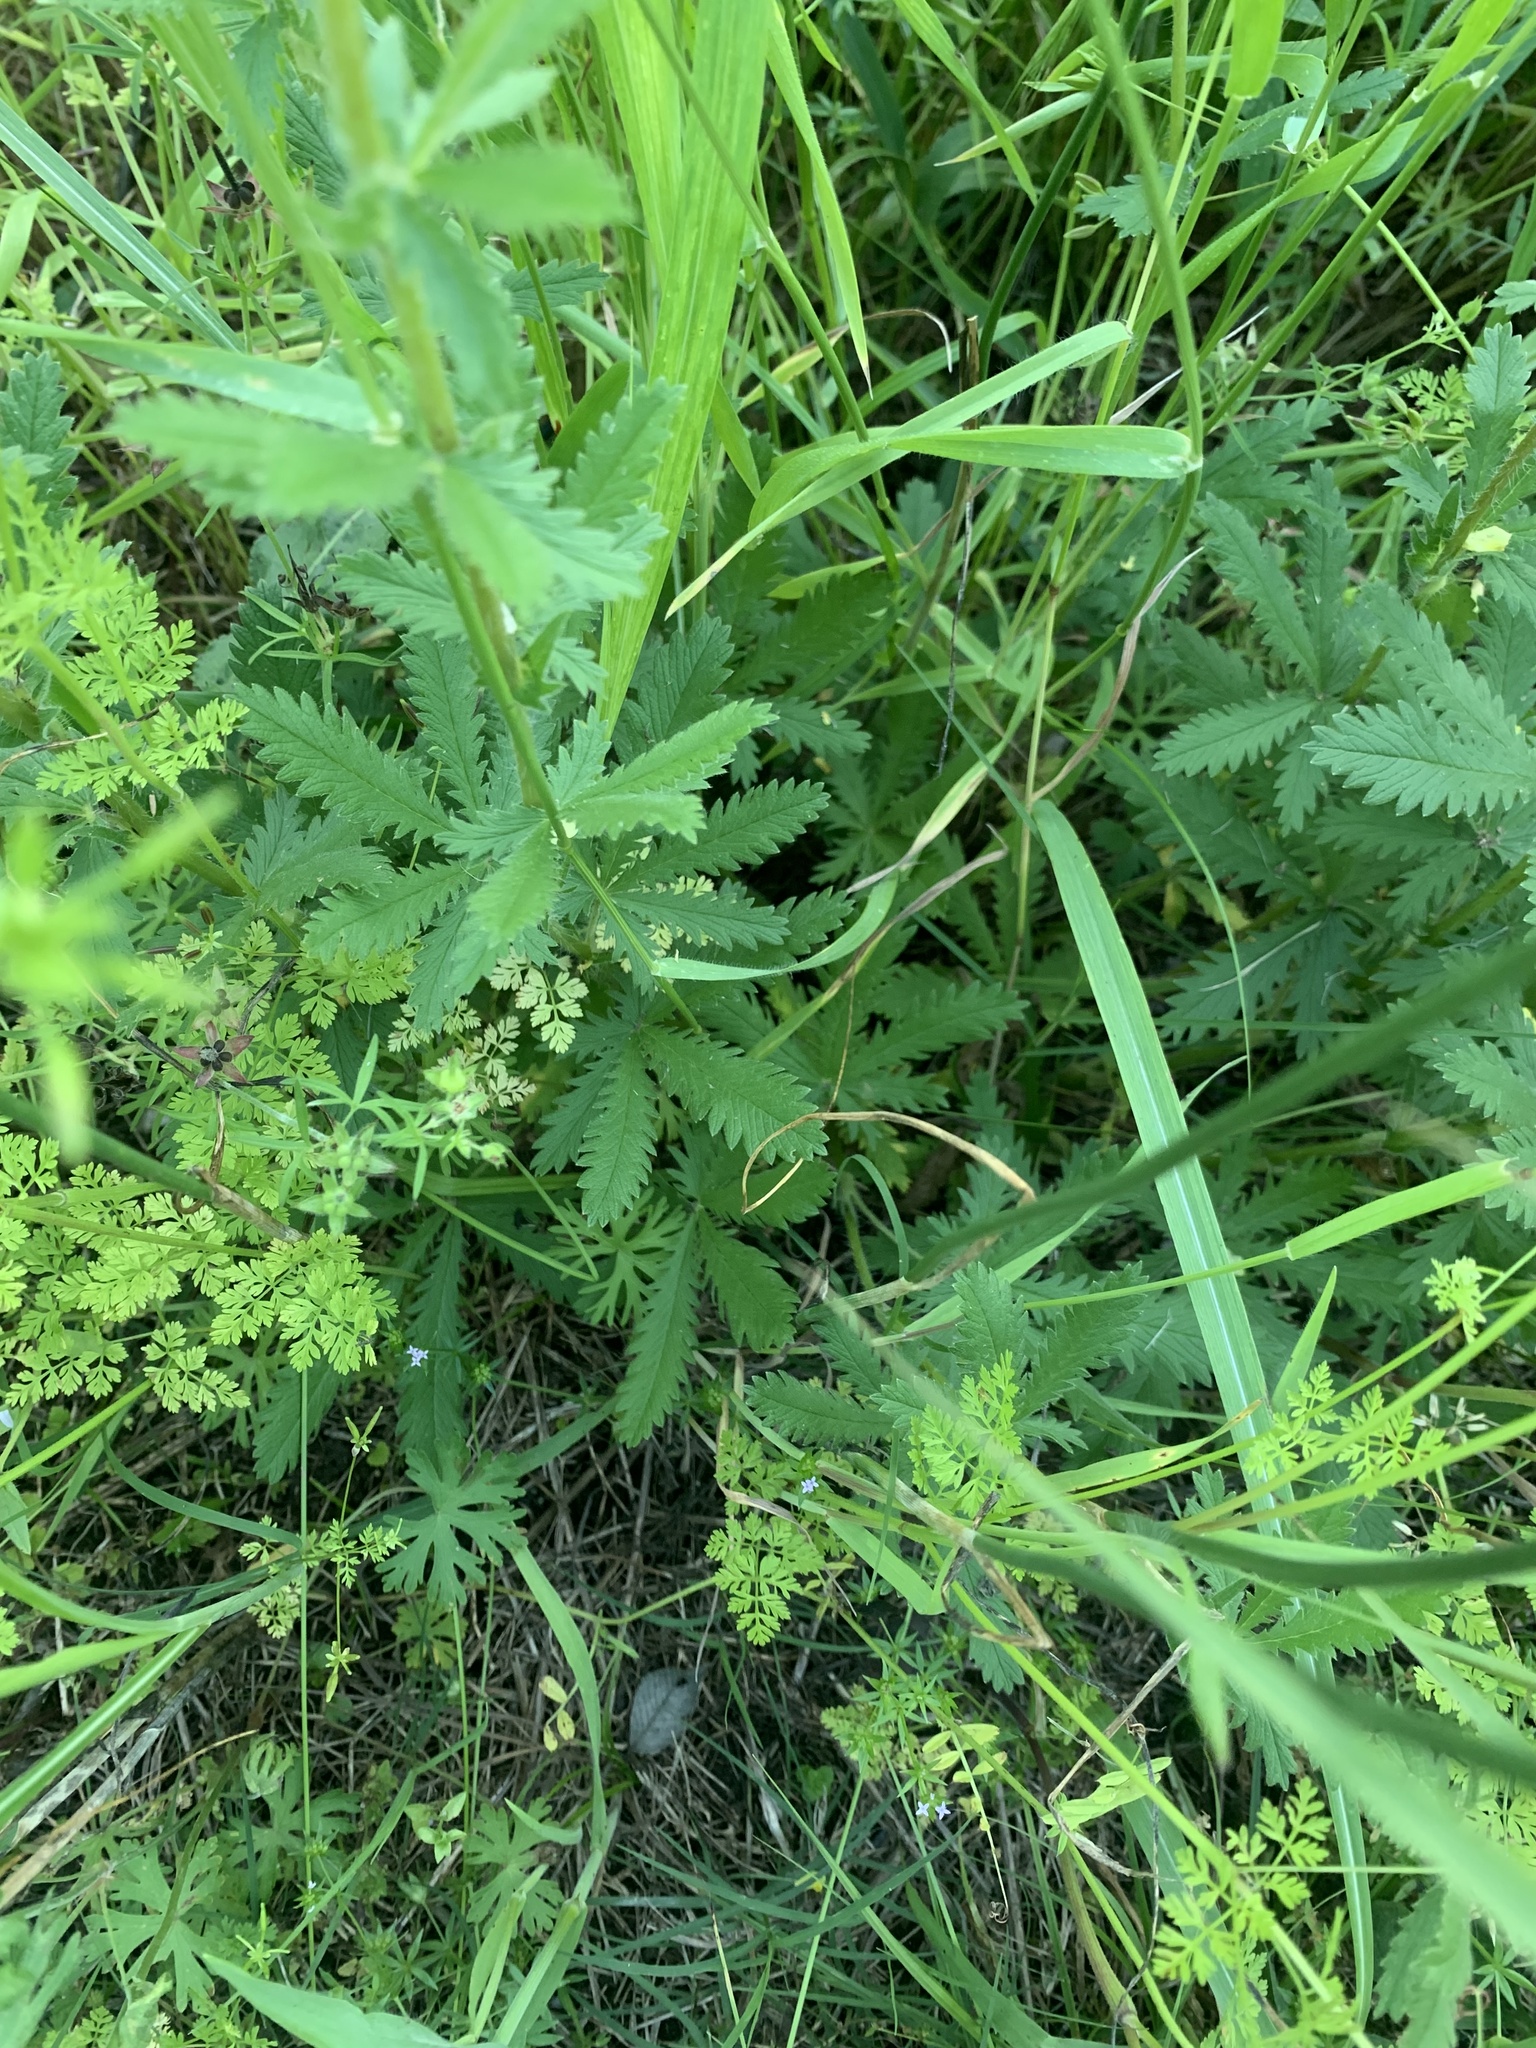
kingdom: Plantae
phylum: Tracheophyta
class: Magnoliopsida
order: Rosales
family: Rosaceae
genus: Potentilla
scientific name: Potentilla recta
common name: Sulphur cinquefoil
